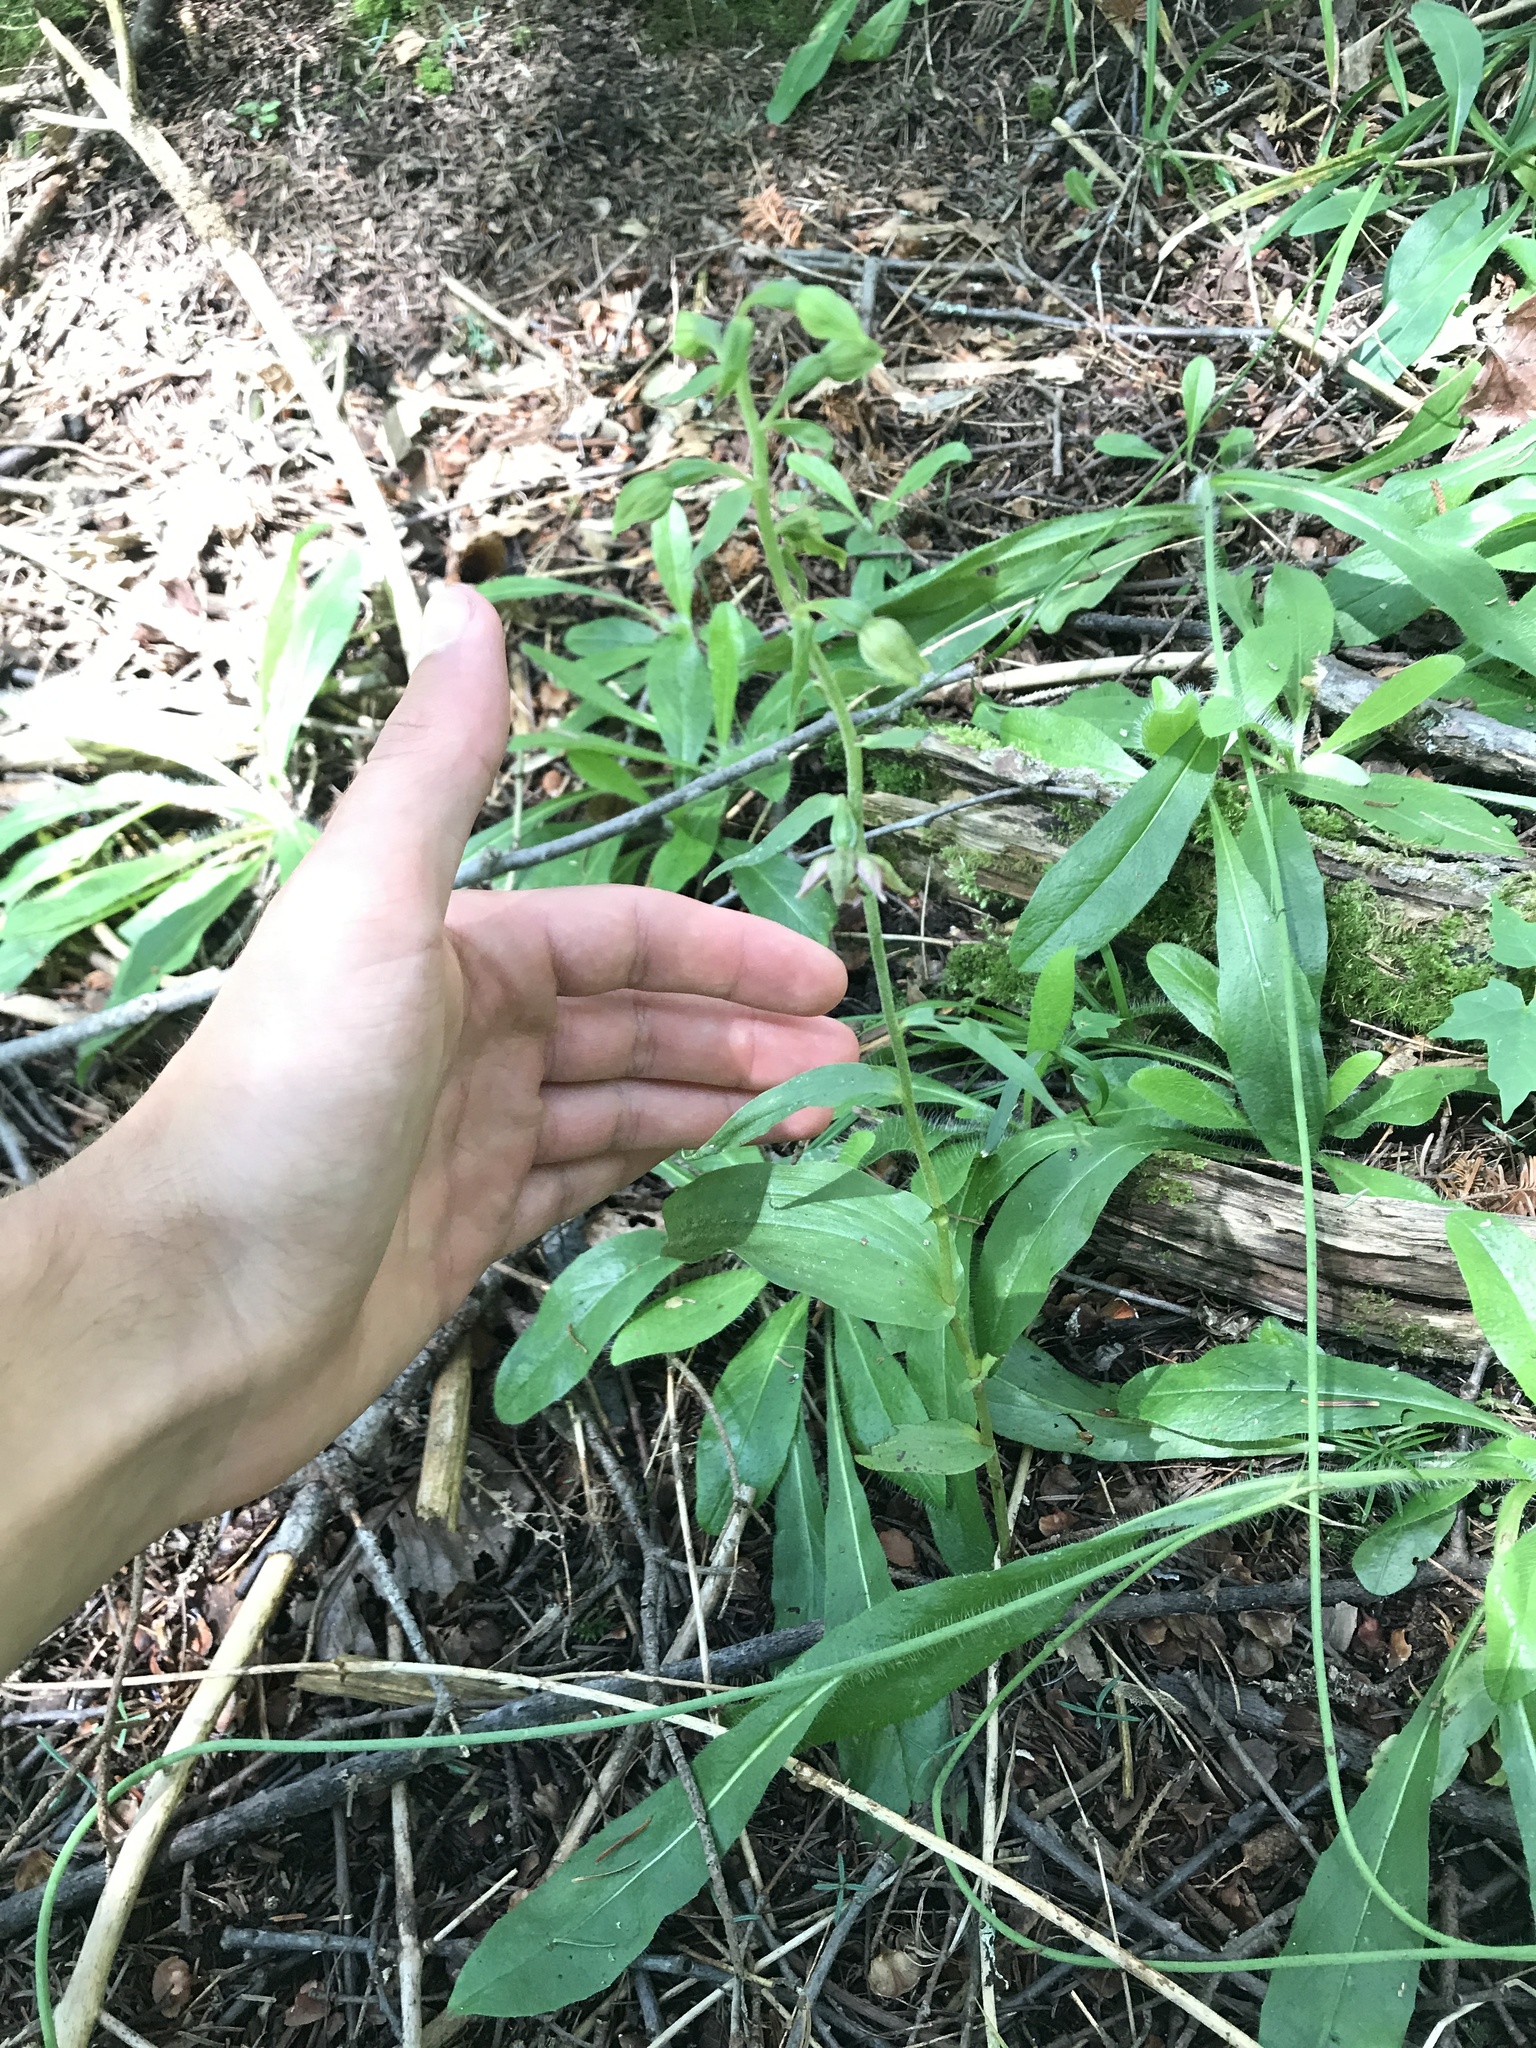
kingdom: Plantae
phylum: Tracheophyta
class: Liliopsida
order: Asparagales
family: Orchidaceae
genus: Epipactis
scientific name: Epipactis helleborine
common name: Broad-leaved helleborine
